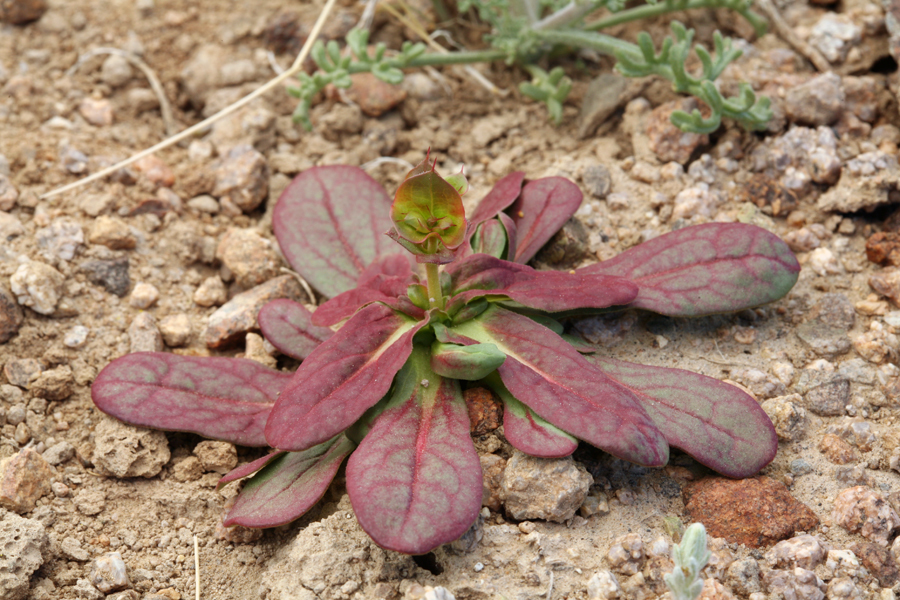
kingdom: Plantae
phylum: Tracheophyta
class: Magnoliopsida
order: Caryophyllales
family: Polygonaceae
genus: Oxytheca
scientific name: Oxytheca perfoliata
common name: Round-leaf puncturebract
